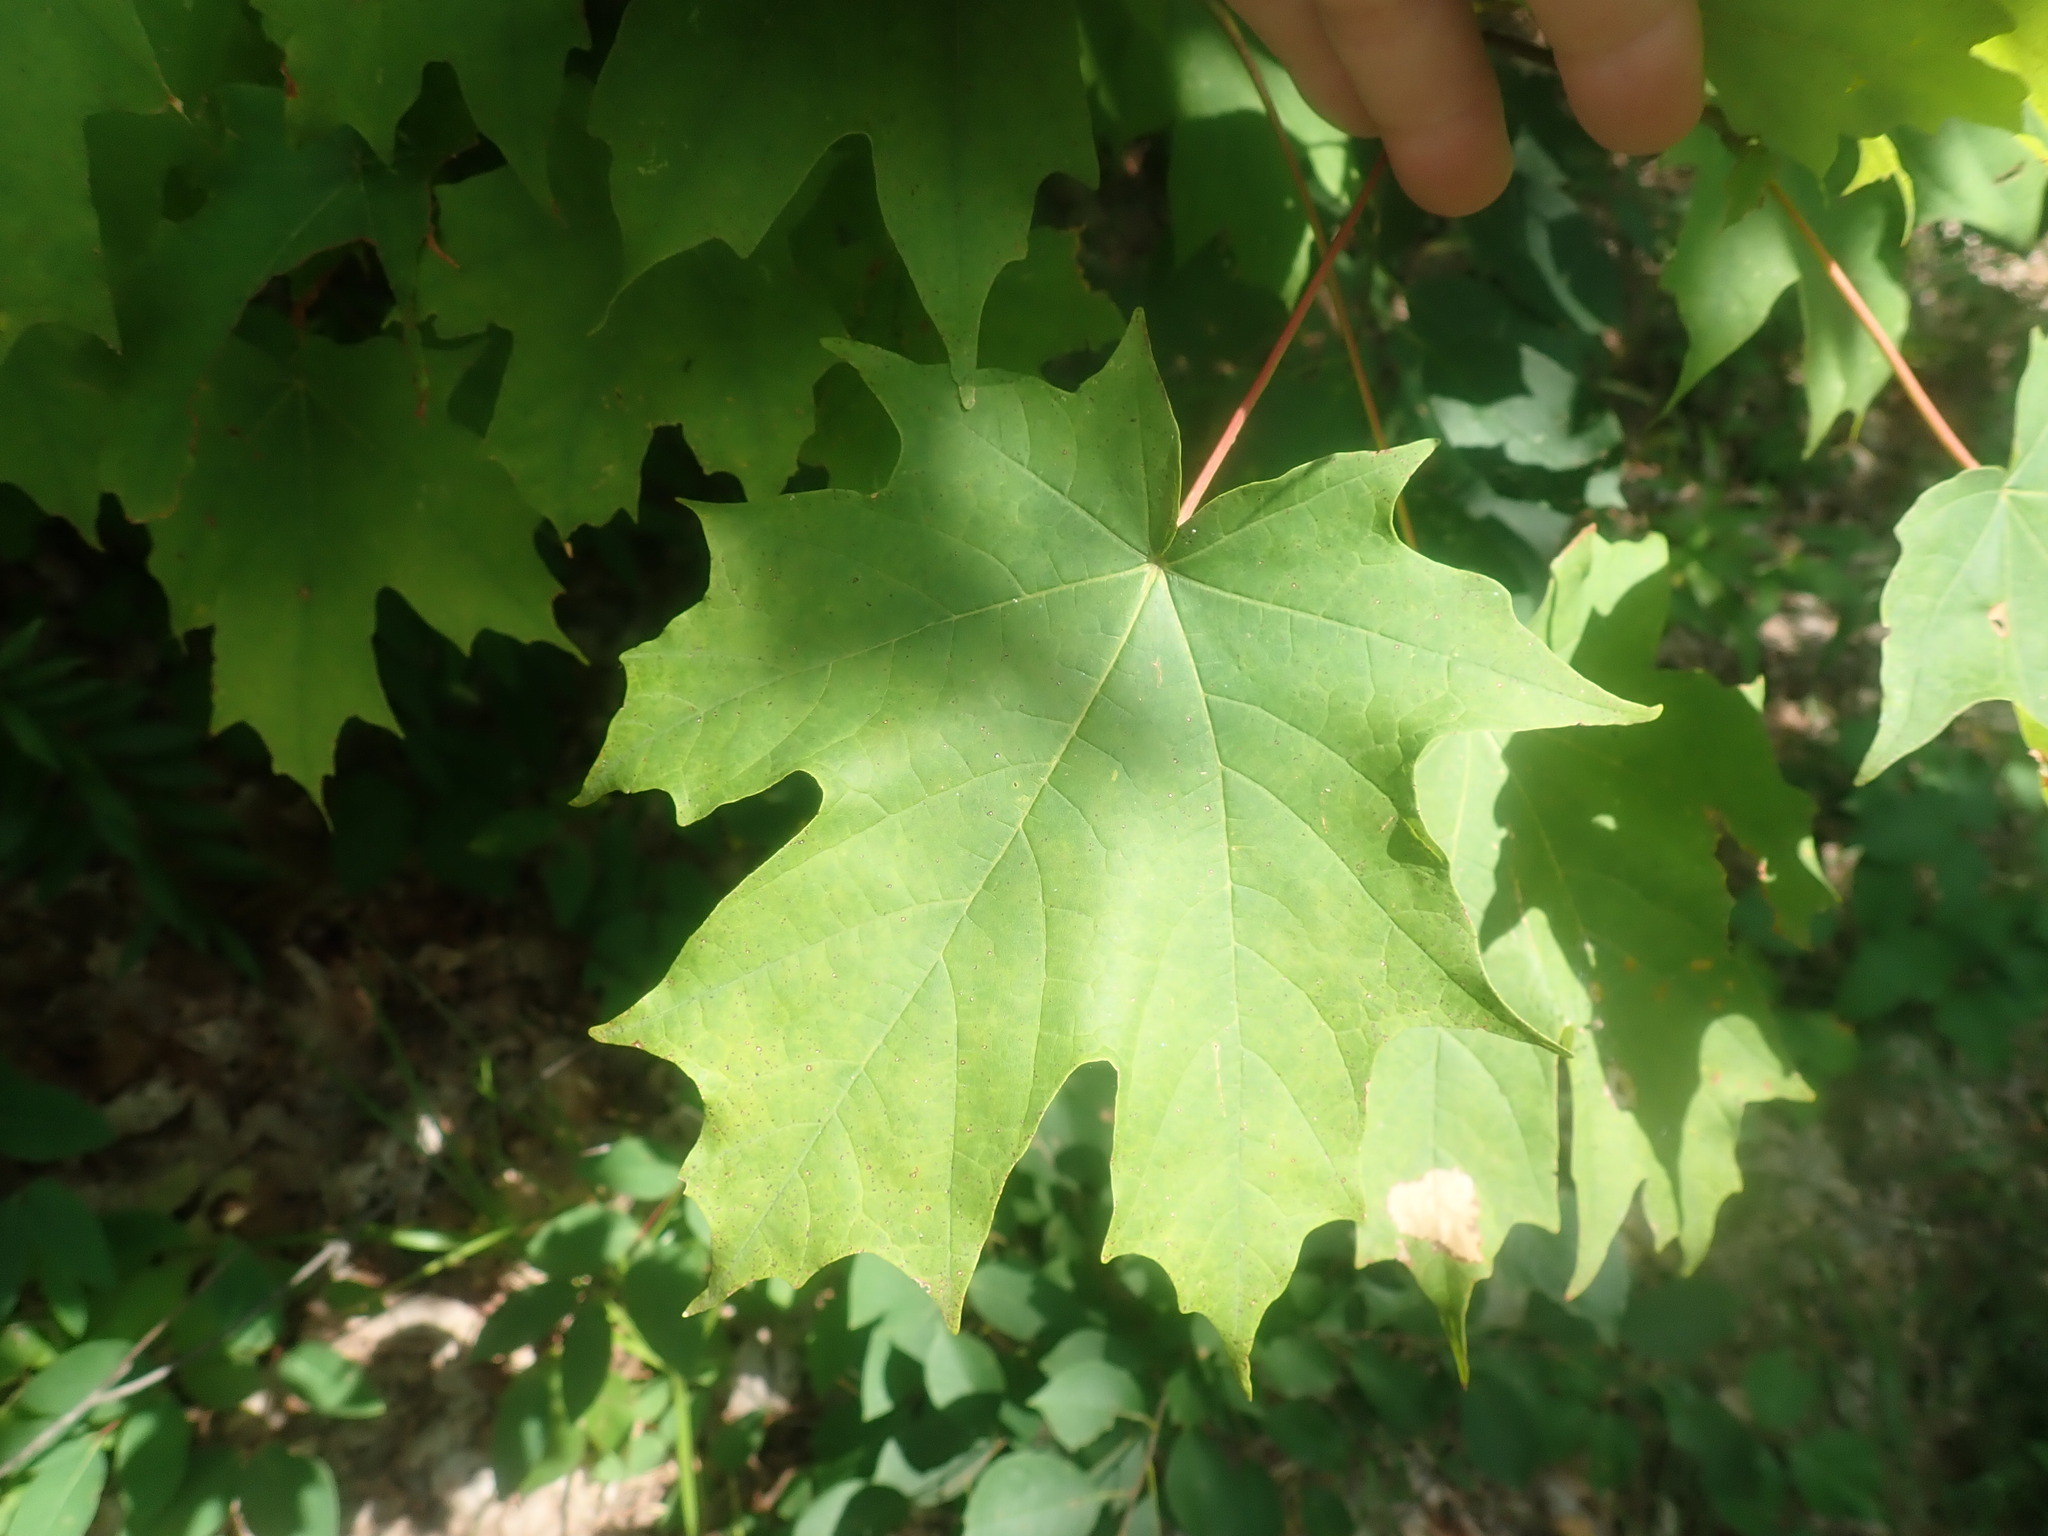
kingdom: Plantae
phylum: Tracheophyta
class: Magnoliopsida
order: Sapindales
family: Sapindaceae
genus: Acer
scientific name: Acer saccharum
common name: Sugar maple
